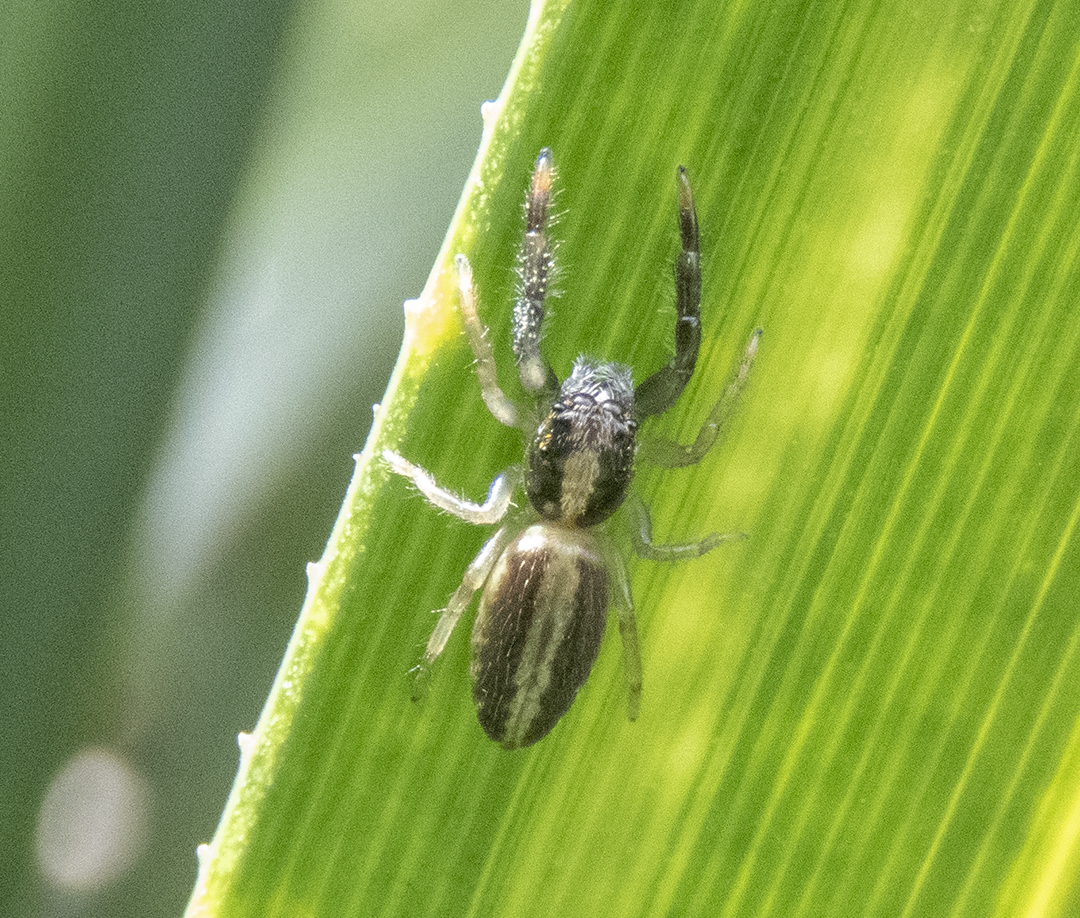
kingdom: Animalia
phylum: Arthropoda
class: Arachnida
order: Araneae
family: Salticidae
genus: Trite
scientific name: Trite planiceps
